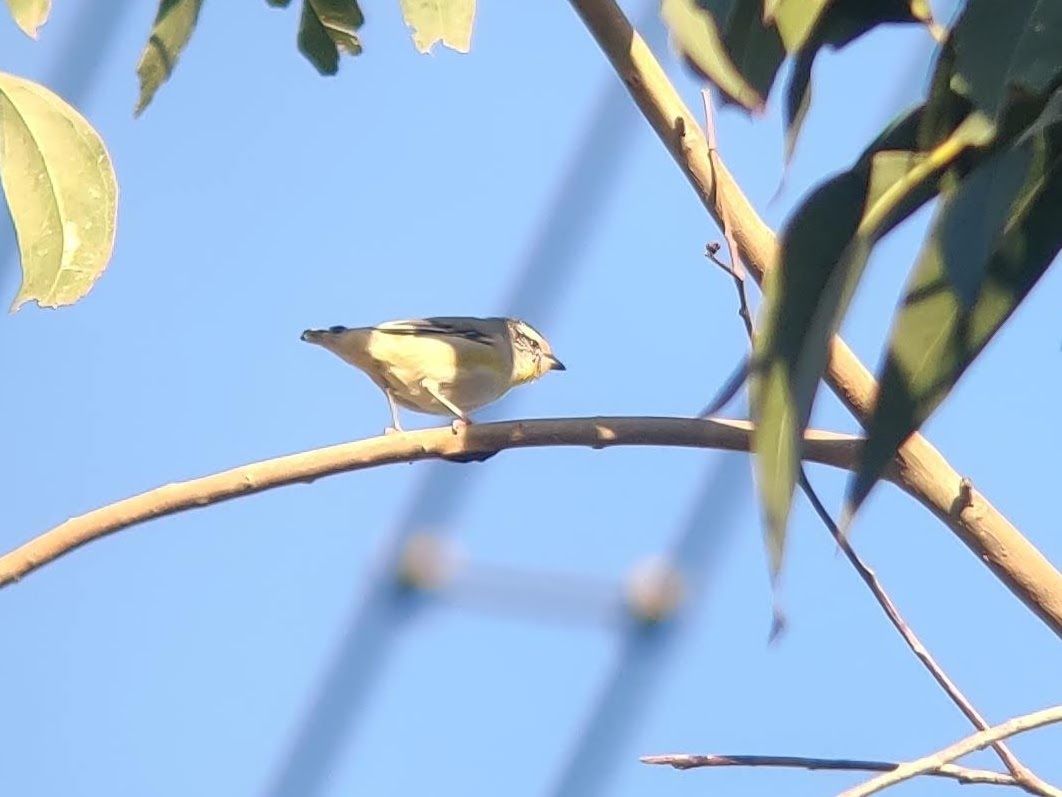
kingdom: Animalia
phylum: Chordata
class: Aves
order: Passeriformes
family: Pardalotidae
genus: Pardalotus
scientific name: Pardalotus striatus
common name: Striated pardalote
